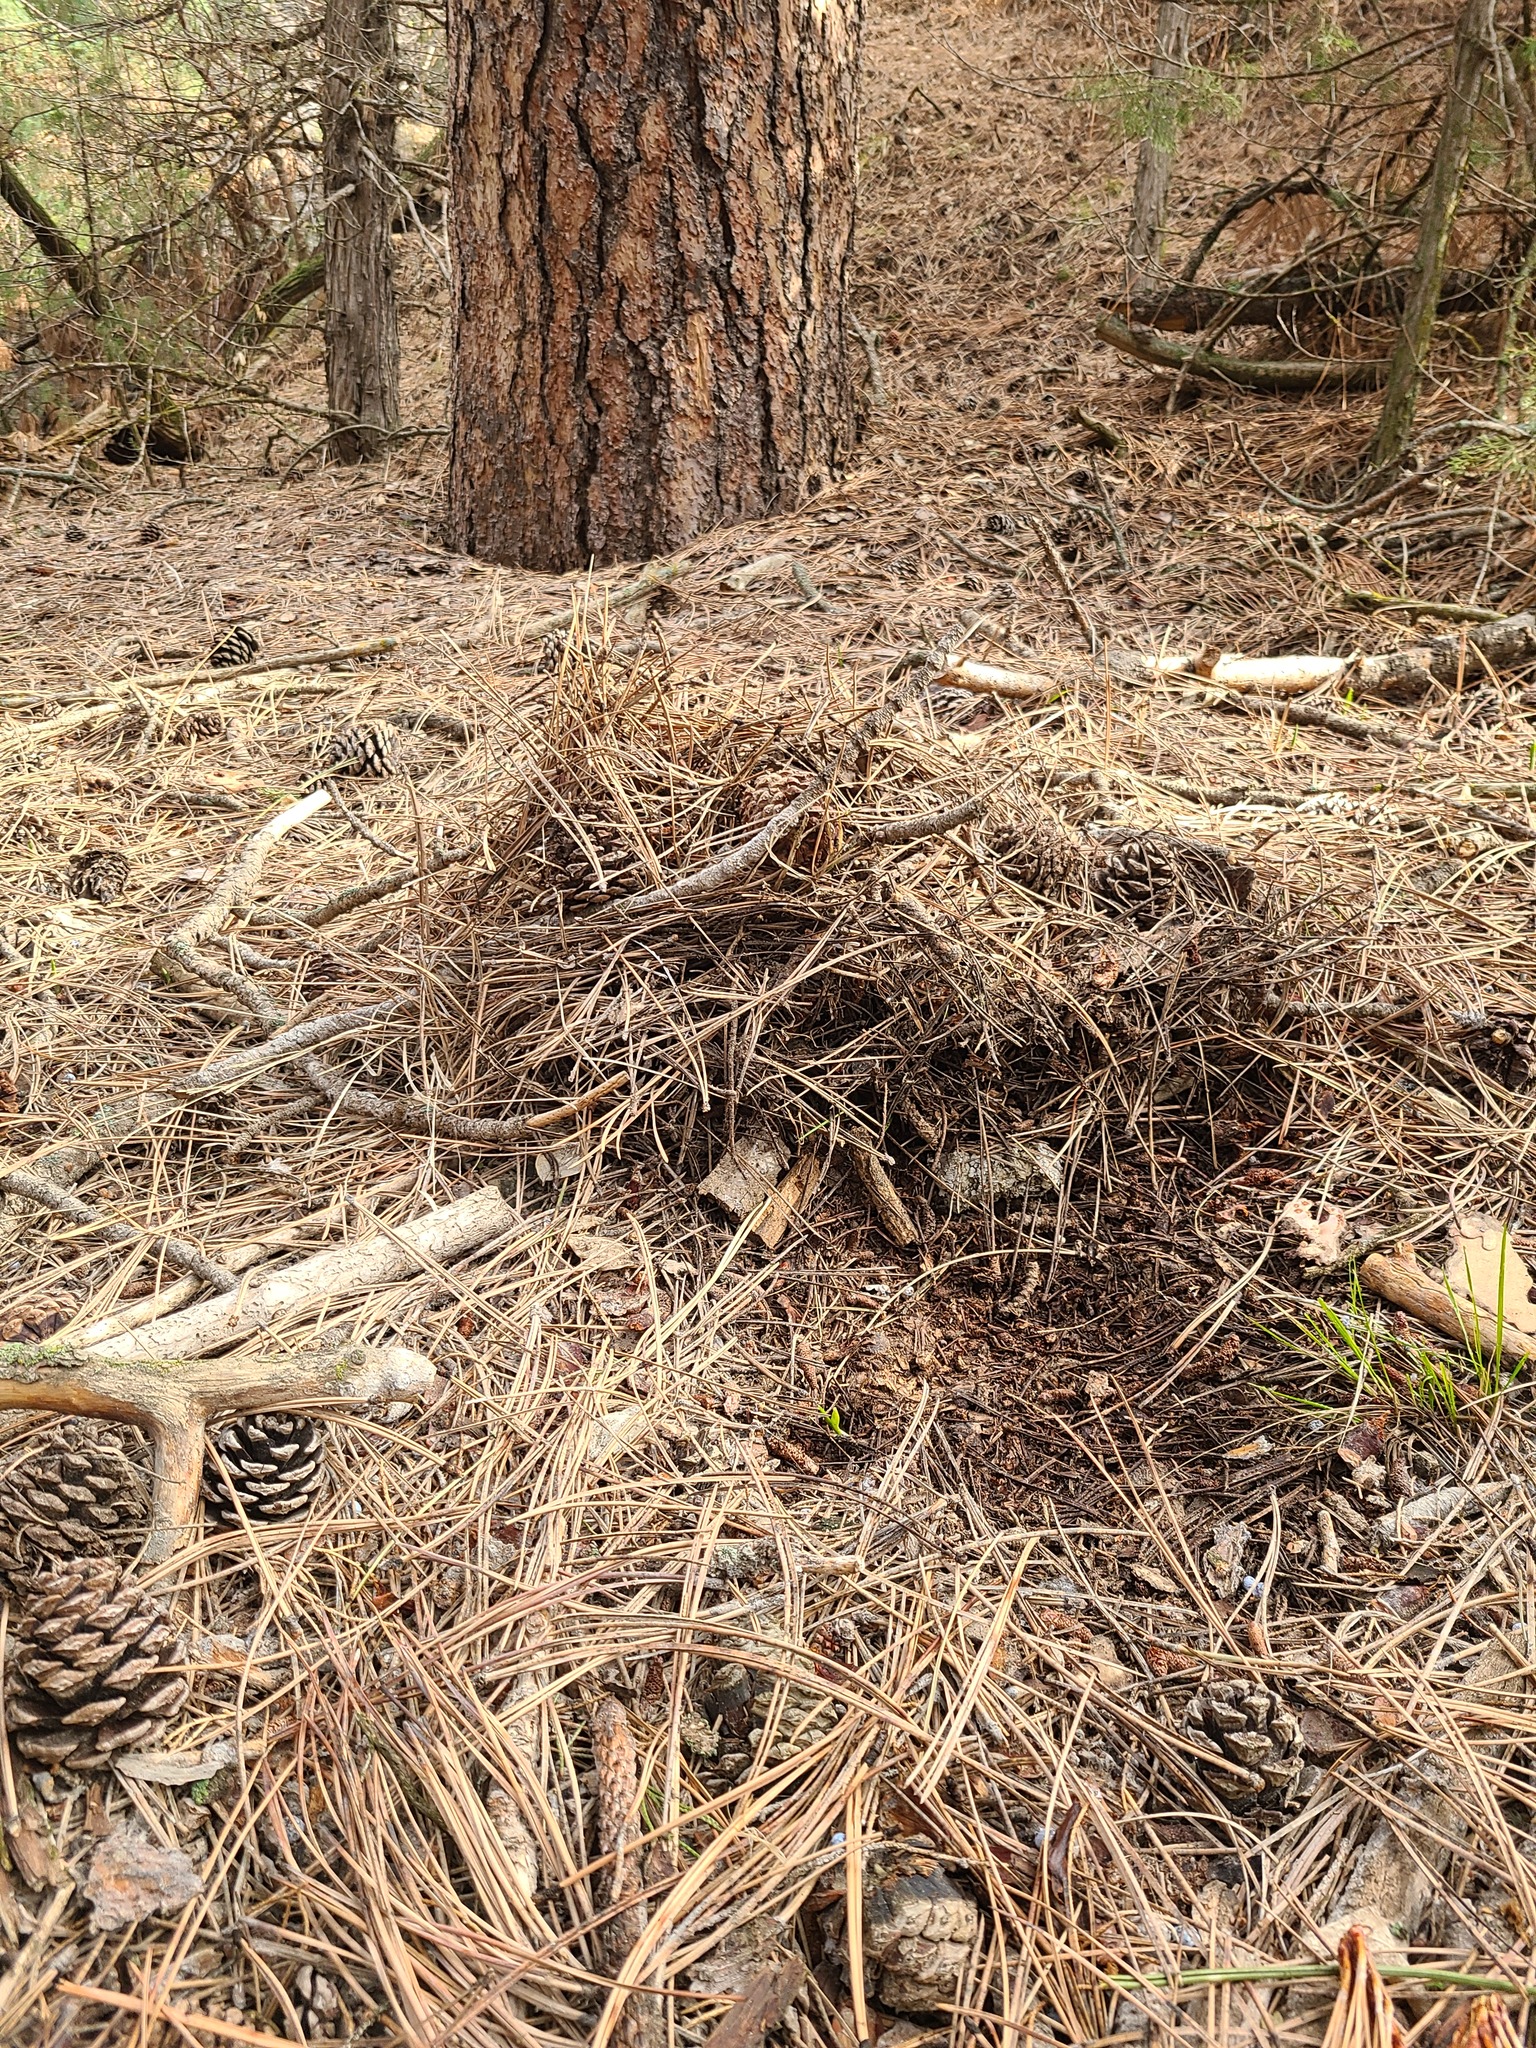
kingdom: Animalia
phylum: Chordata
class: Mammalia
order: Carnivora
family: Felidae
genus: Puma
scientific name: Puma concolor
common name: Puma
